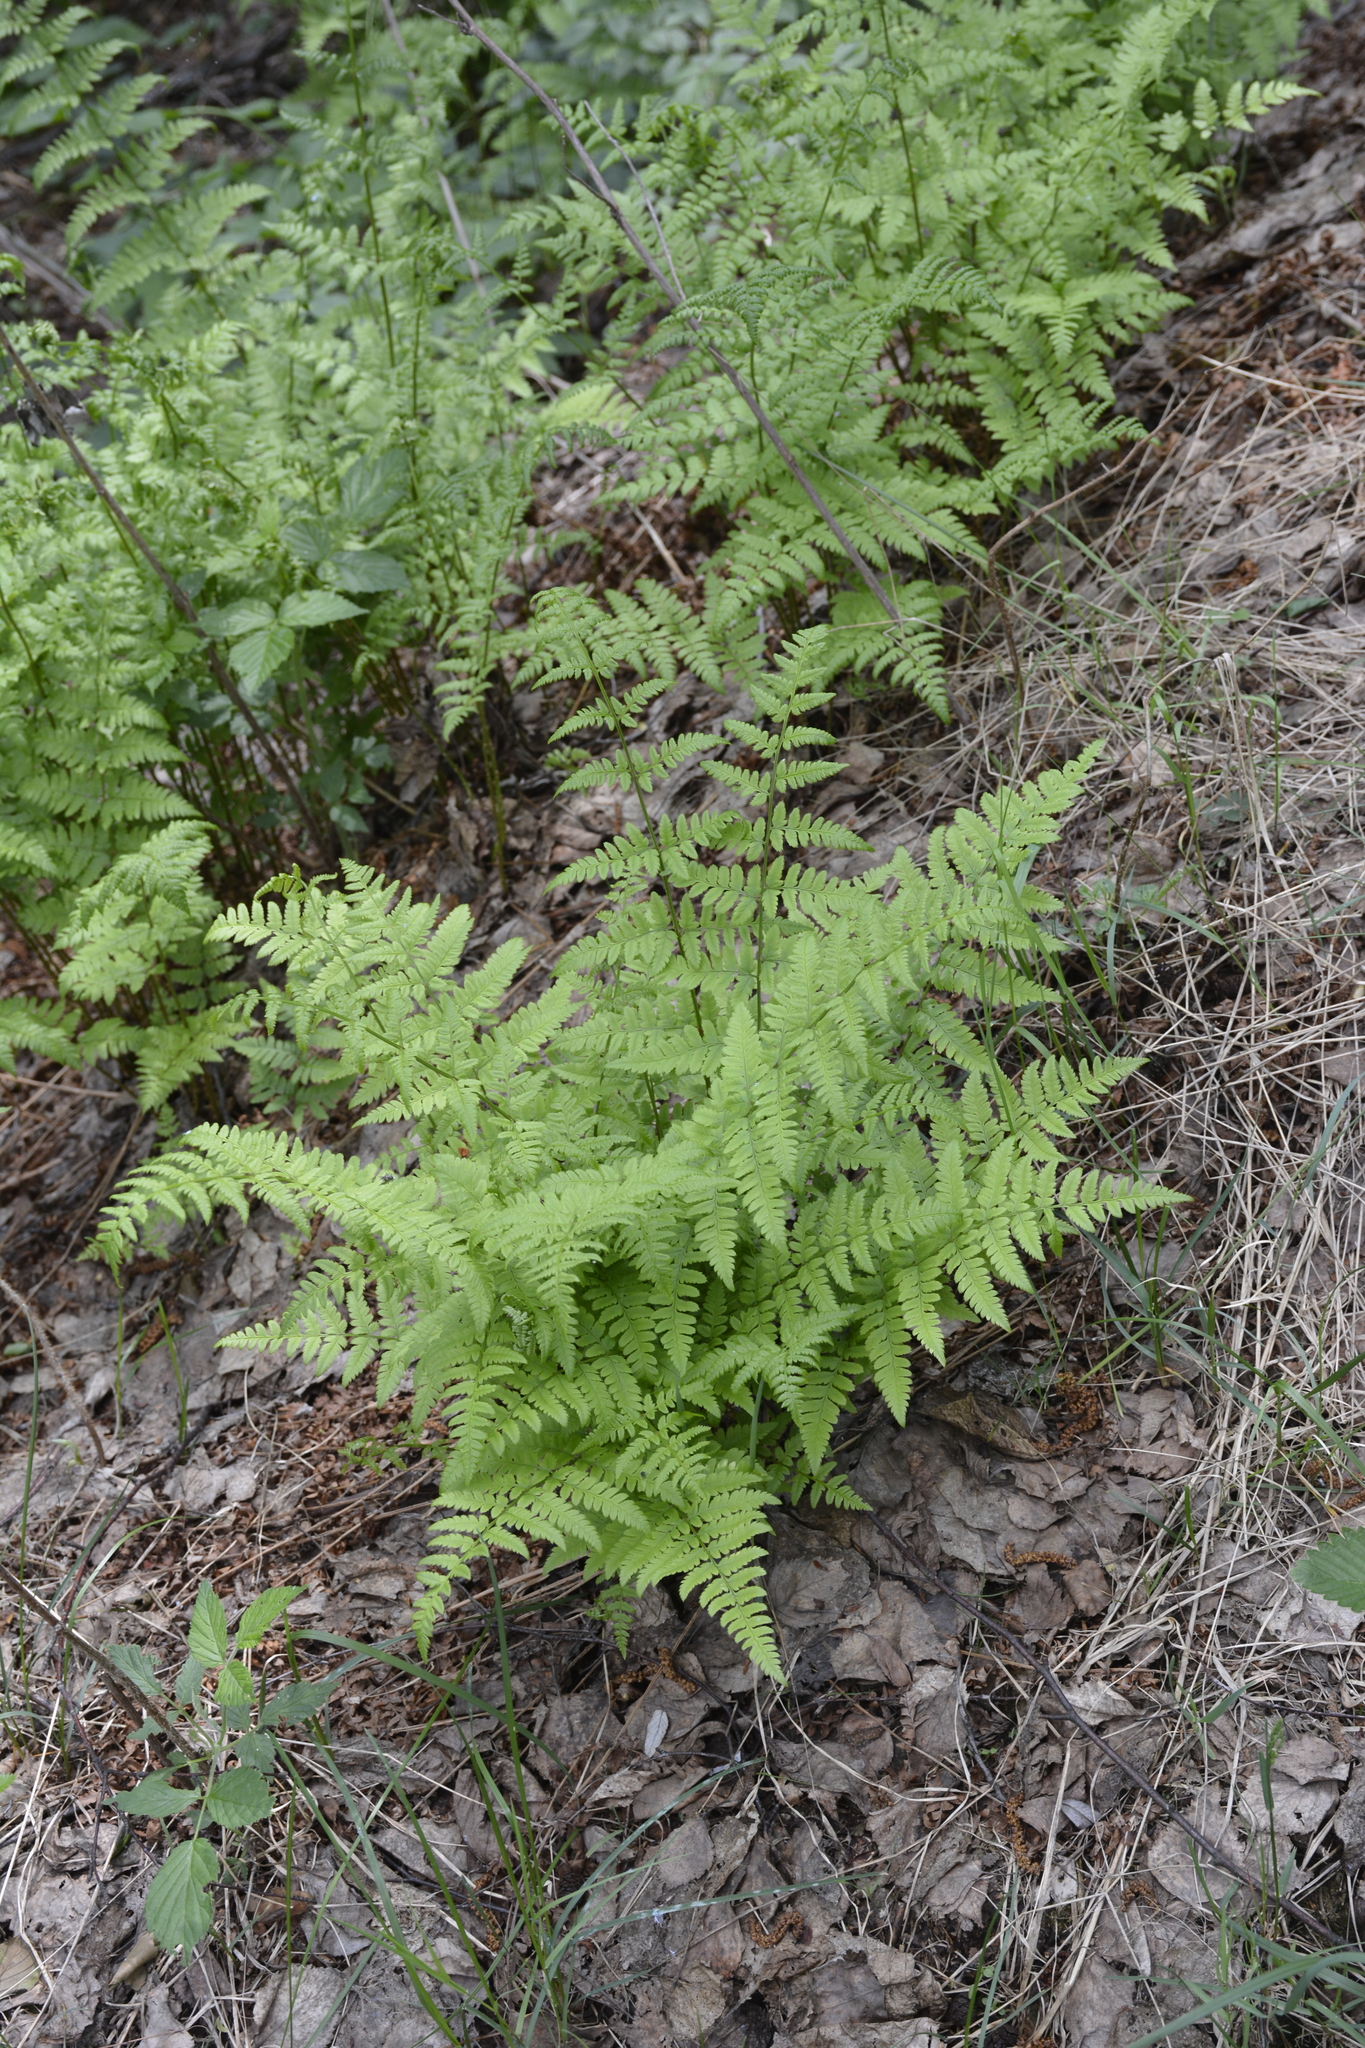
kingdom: Plantae
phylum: Tracheophyta
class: Polypodiopsida
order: Polypodiales
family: Dryopteridaceae
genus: Dryopteris
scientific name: Dryopteris carthusiana
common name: Narrow buckler-fern
